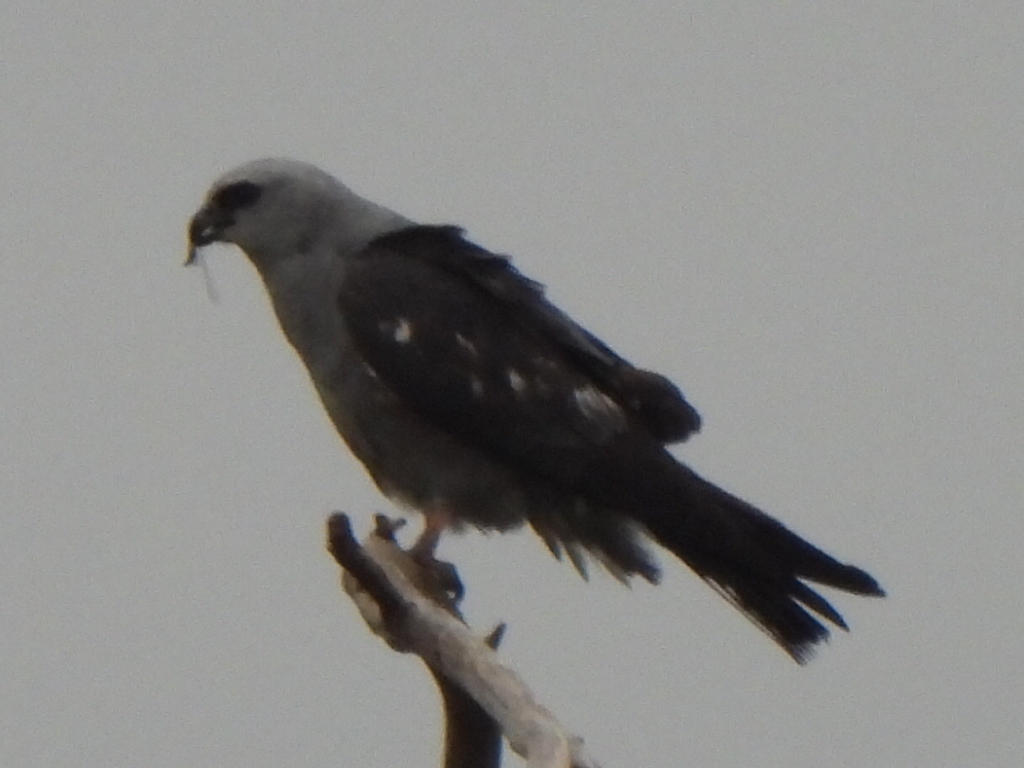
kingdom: Animalia
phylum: Chordata
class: Aves
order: Accipitriformes
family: Accipitridae
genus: Ictinia
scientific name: Ictinia mississippiensis
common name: Mississippi kite
